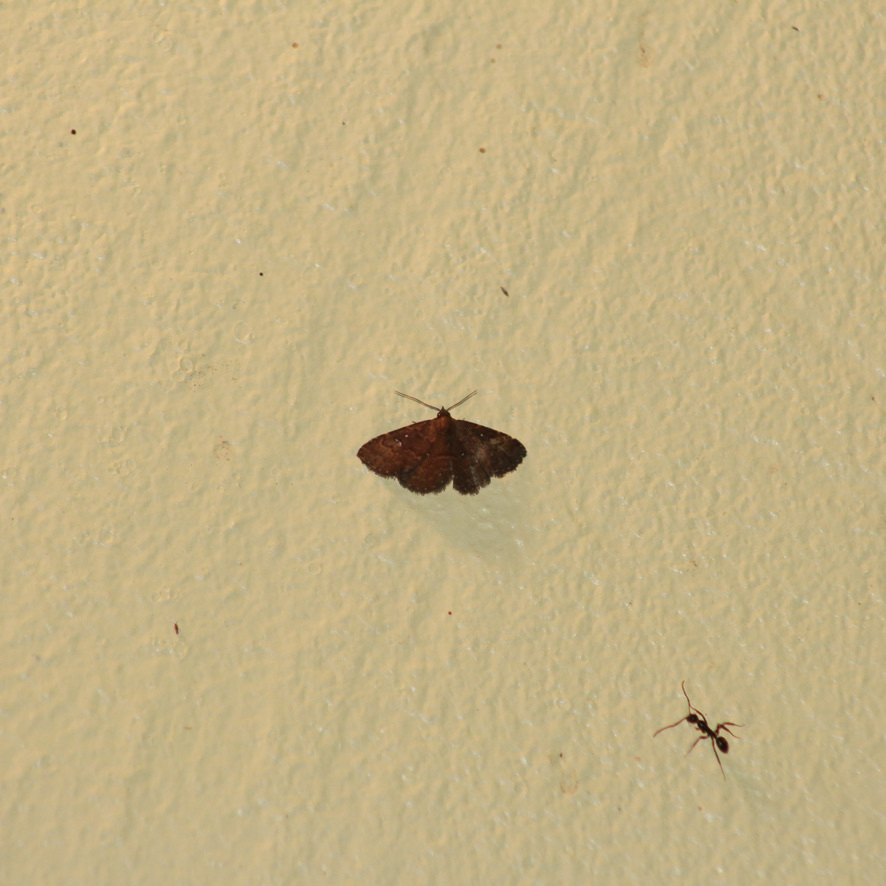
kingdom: Animalia
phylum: Arthropoda
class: Insecta
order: Lepidoptera
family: Erebidae
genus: Ostha
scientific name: Ostha coryphata
